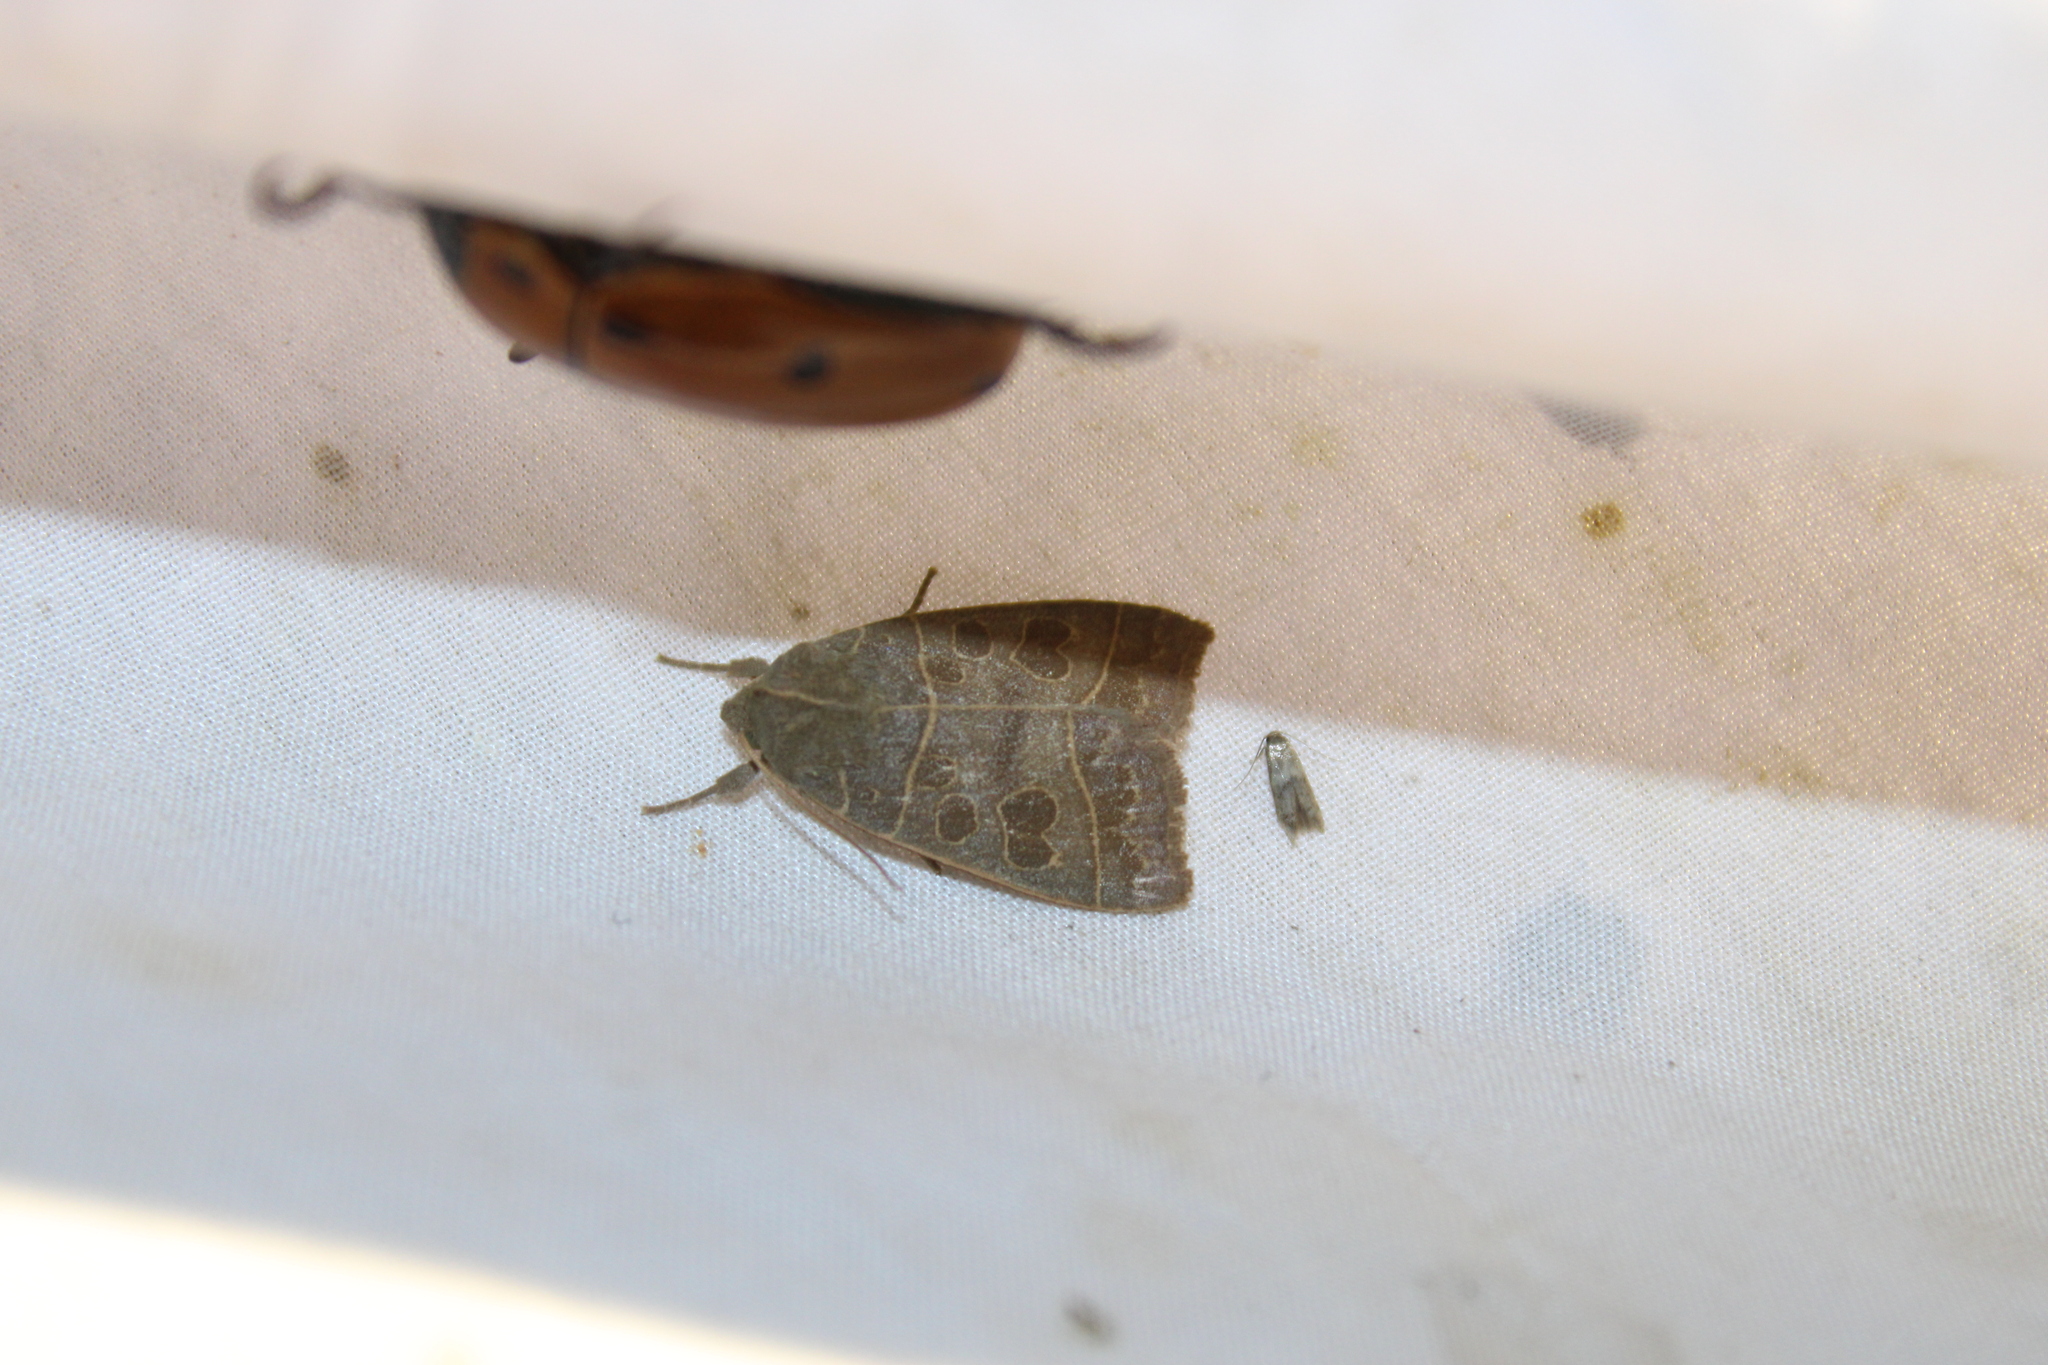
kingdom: Animalia
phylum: Arthropoda
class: Insecta
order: Lepidoptera
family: Noctuidae
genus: Ipimorpha
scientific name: Ipimorpha pleonectusa
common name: Even-lined sallow
